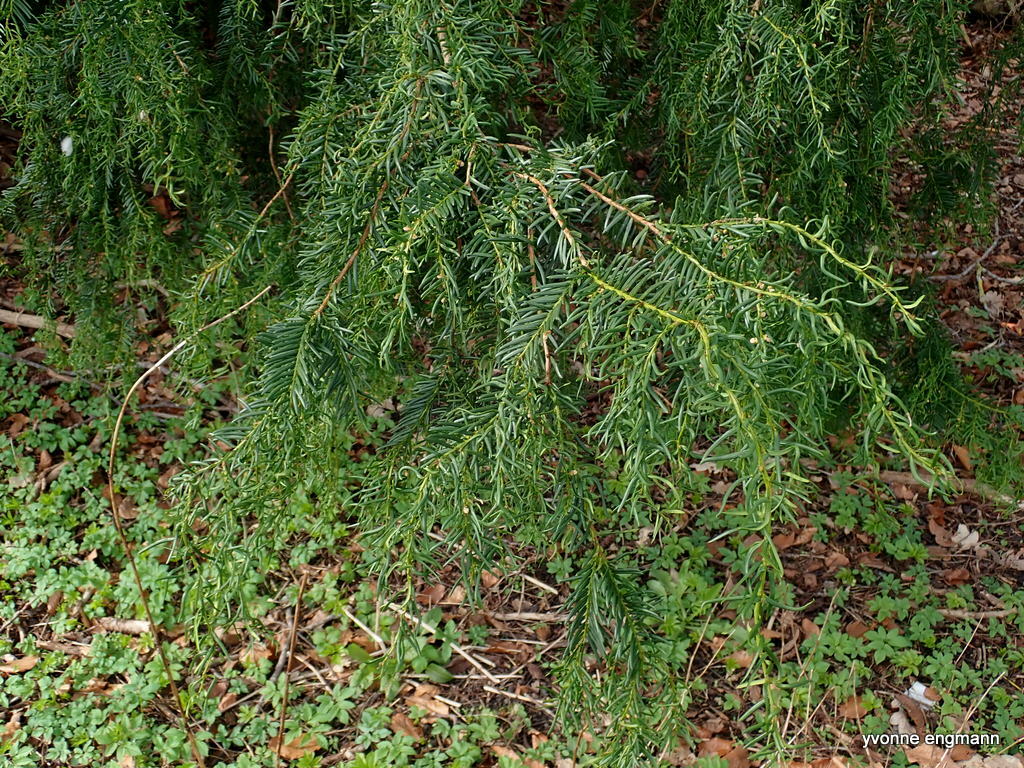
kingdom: Plantae
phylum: Tracheophyta
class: Pinopsida
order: Pinales
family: Taxaceae
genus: Taxus
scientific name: Taxus baccata
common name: Yew
